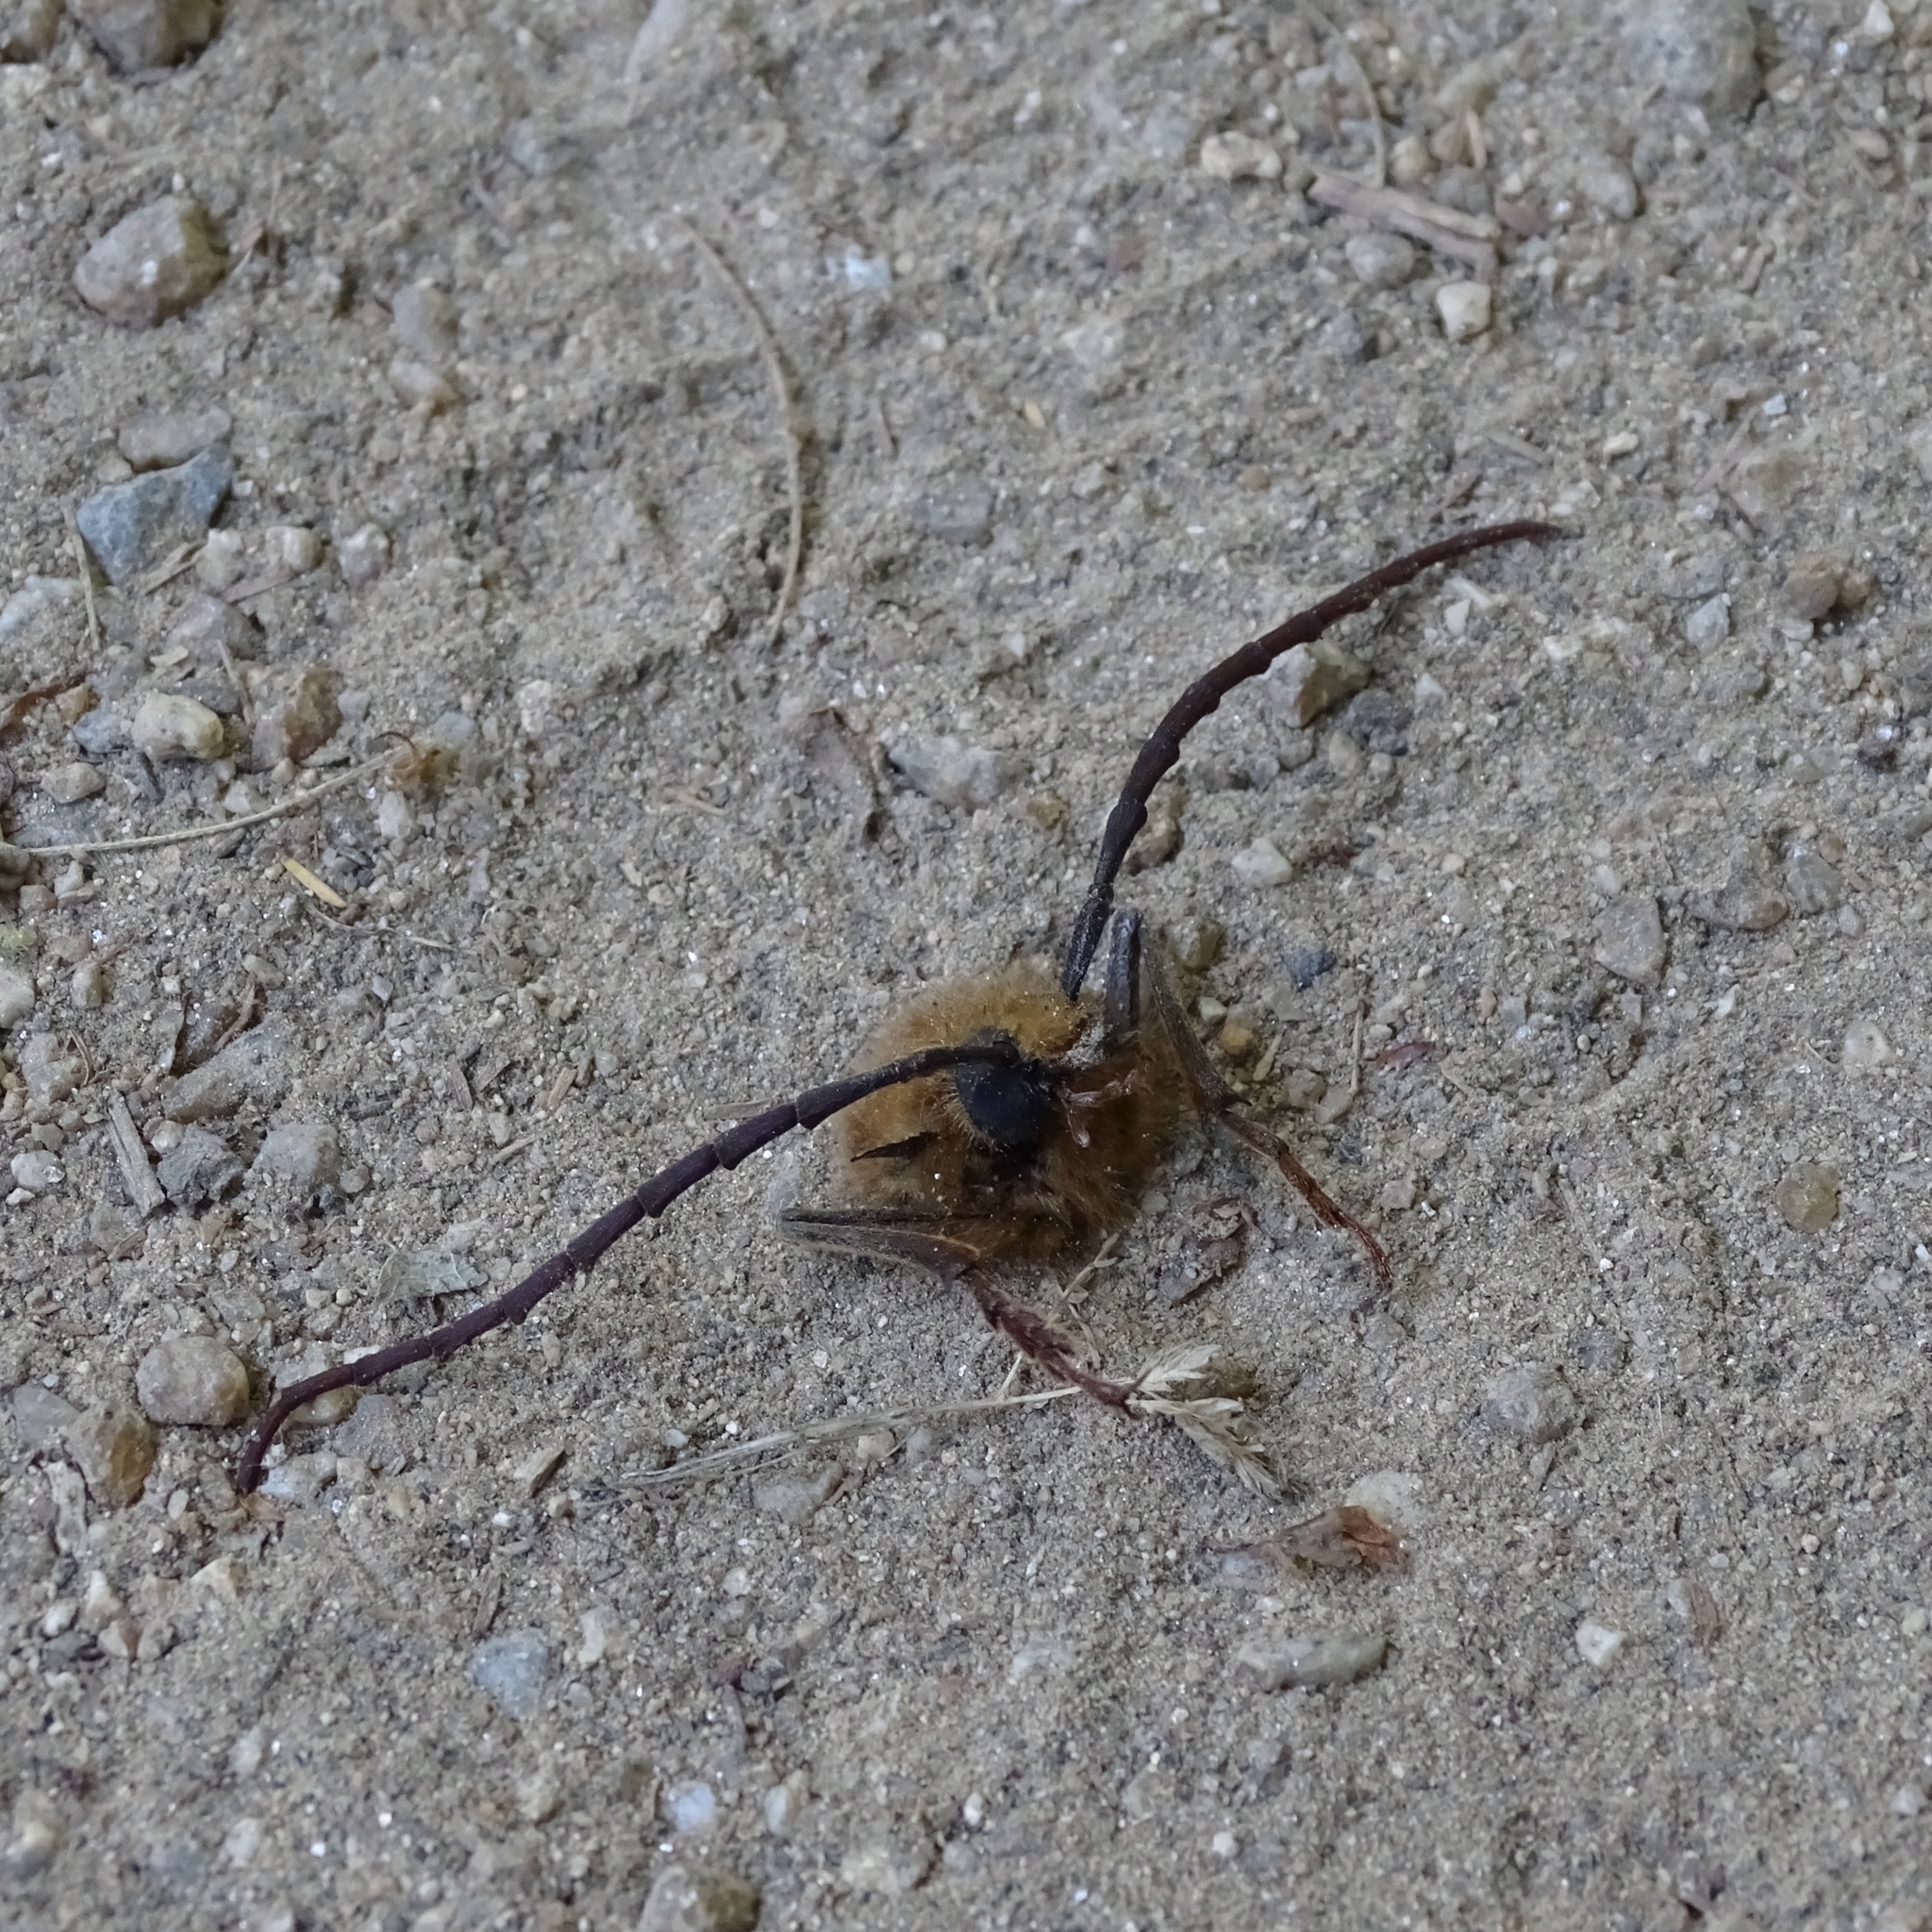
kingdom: Animalia
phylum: Arthropoda
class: Insecta
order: Coleoptera
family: Cerambycidae
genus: Acanthinodera
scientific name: Acanthinodera cumingii
